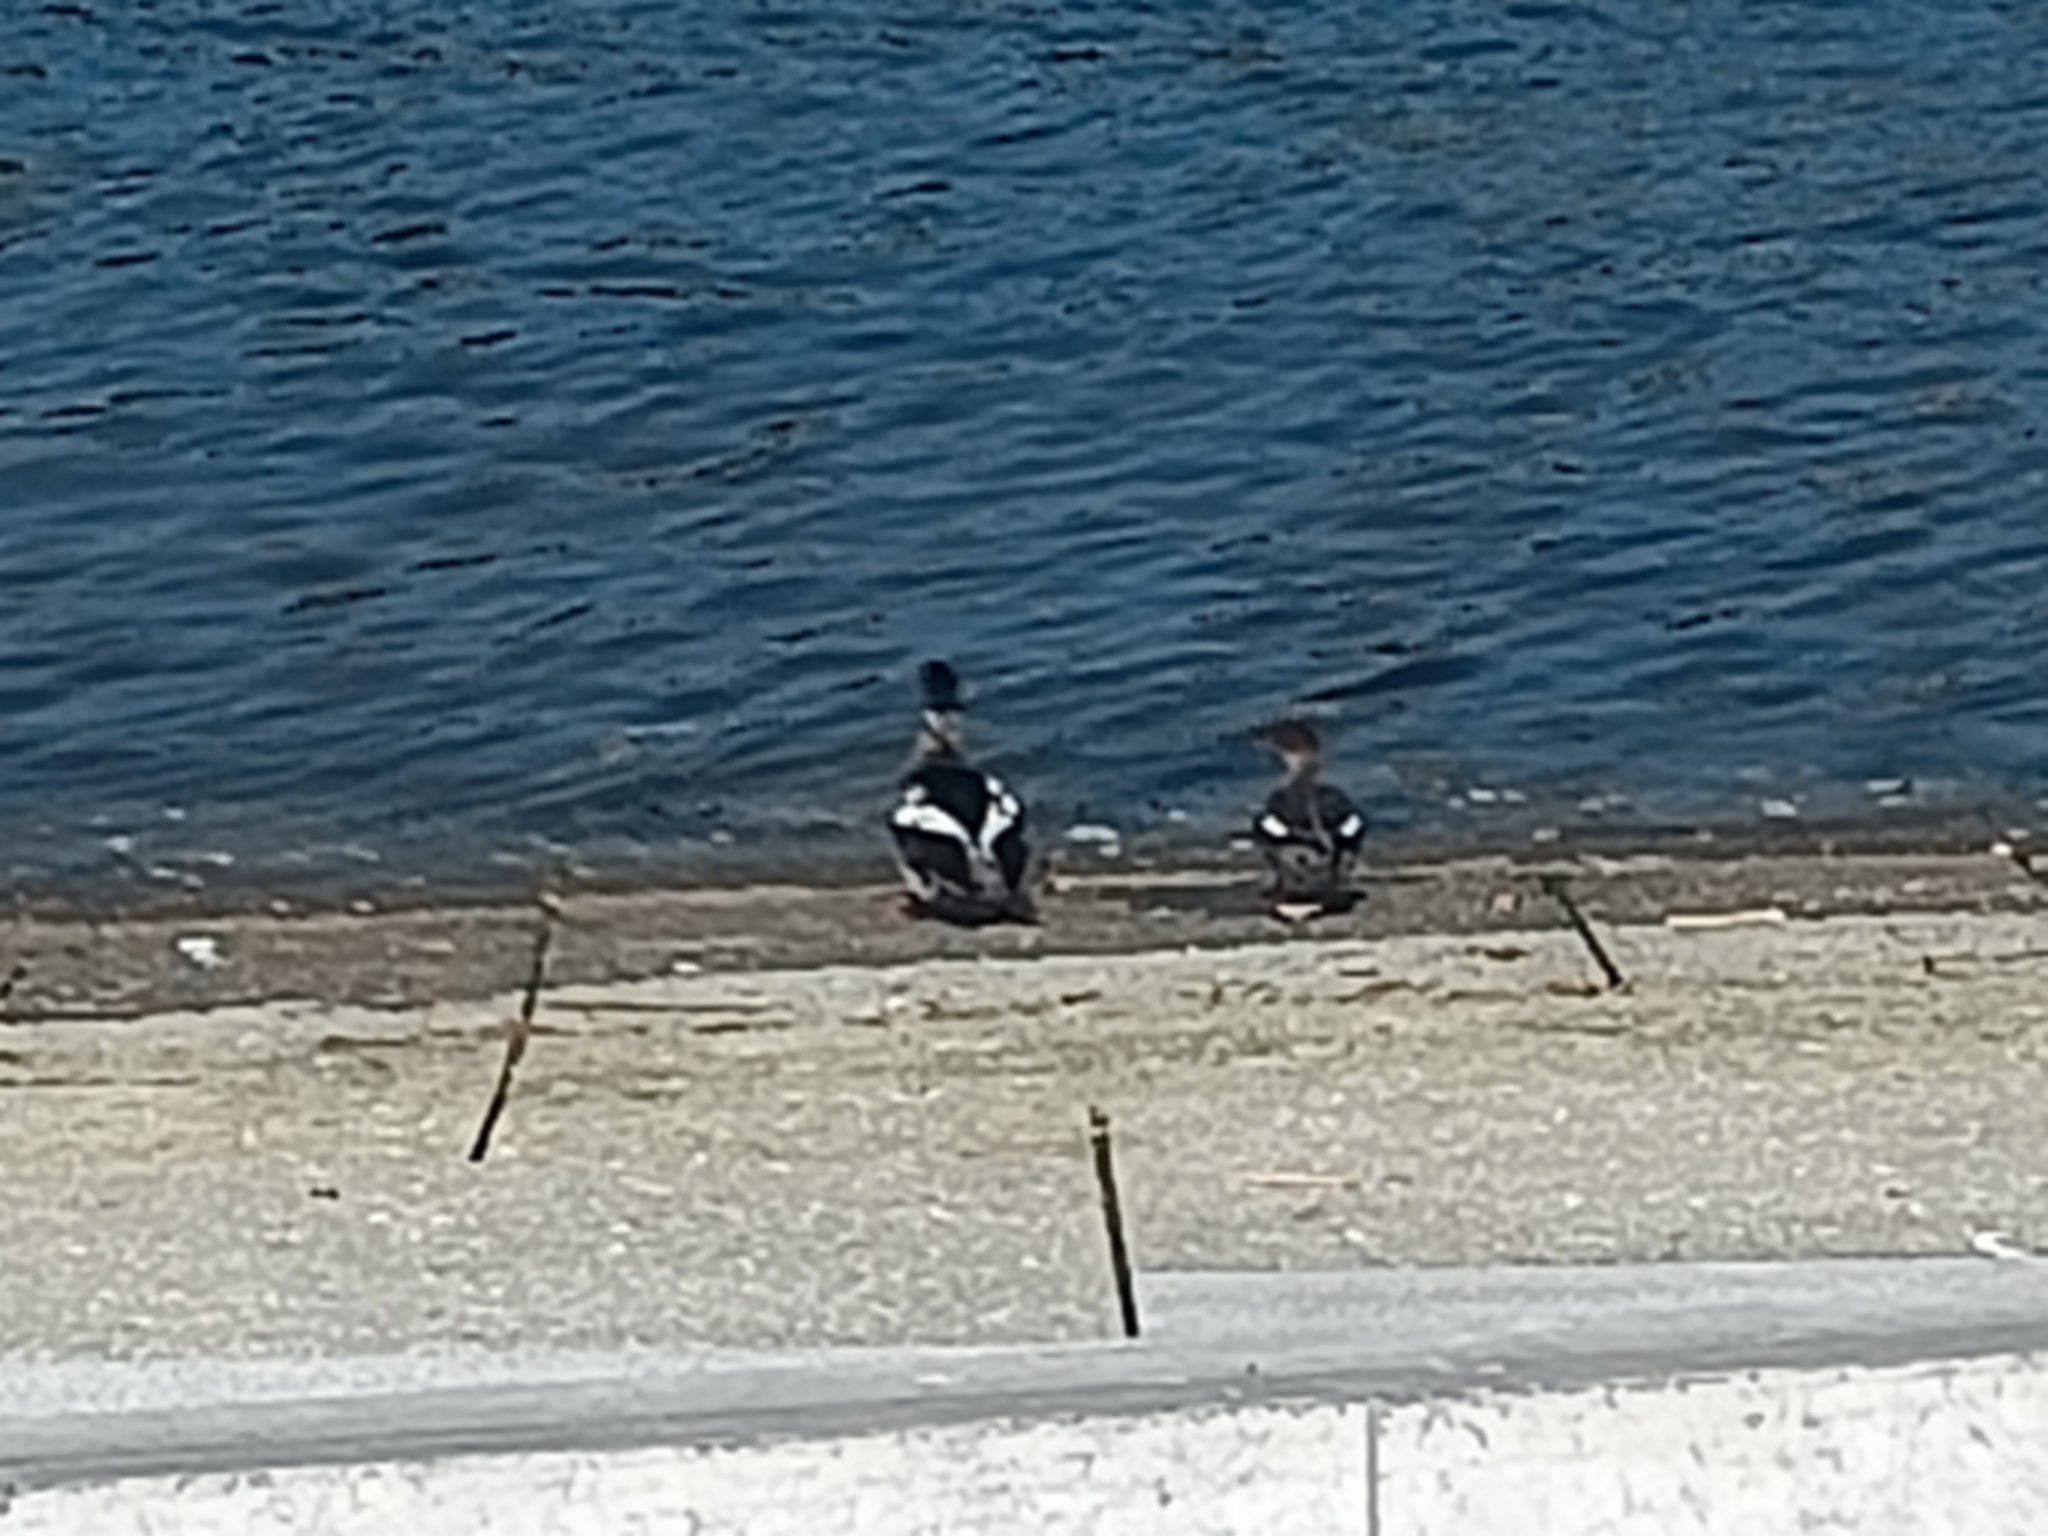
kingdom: Animalia
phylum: Chordata
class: Aves
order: Anseriformes
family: Anatidae
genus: Mergus
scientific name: Mergus serrator
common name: Red-breasted merganser
